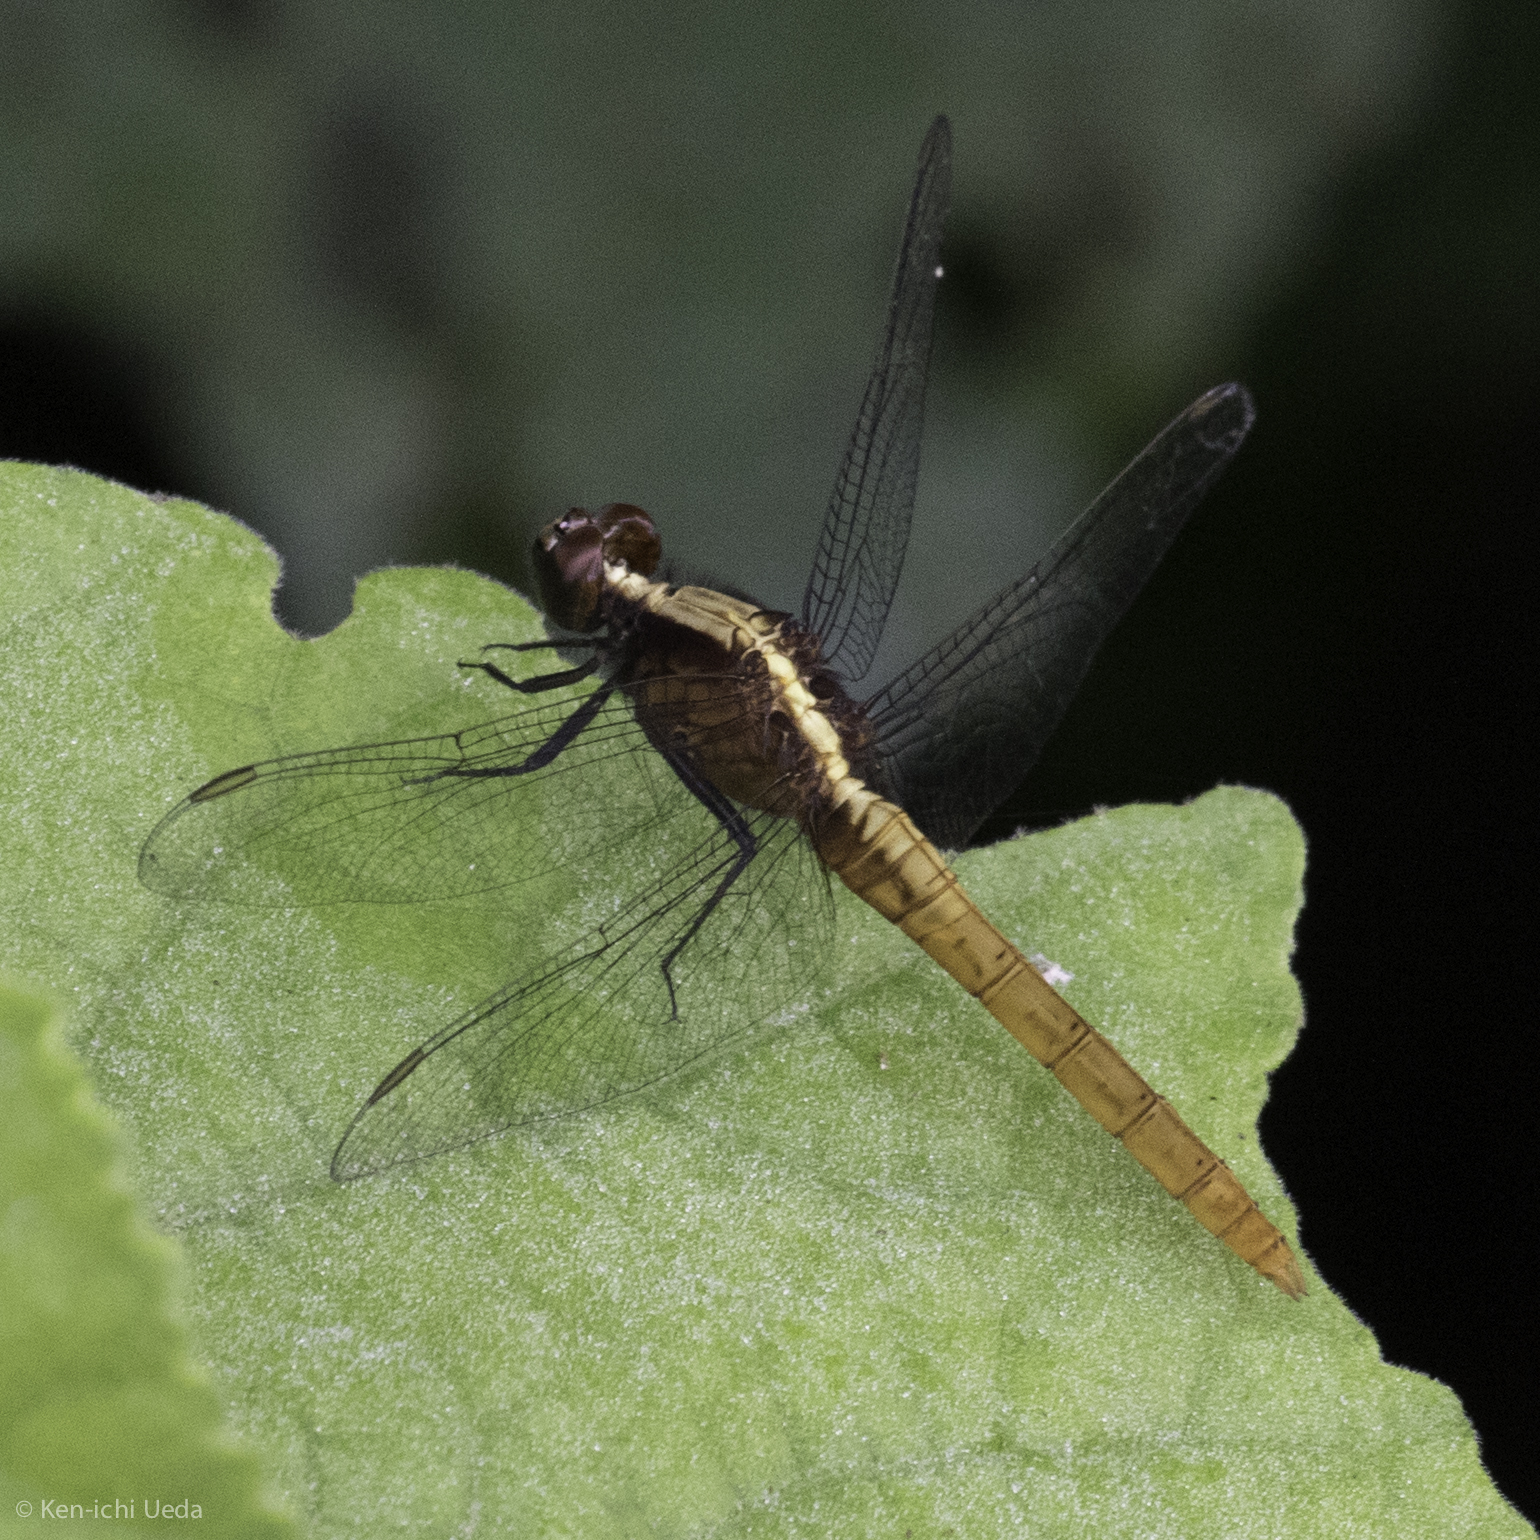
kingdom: Animalia
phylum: Arthropoda
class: Insecta
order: Odonata
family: Libellulidae
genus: Erythemis
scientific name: Erythemis peruviana
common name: Flame-tailed pondhawk
